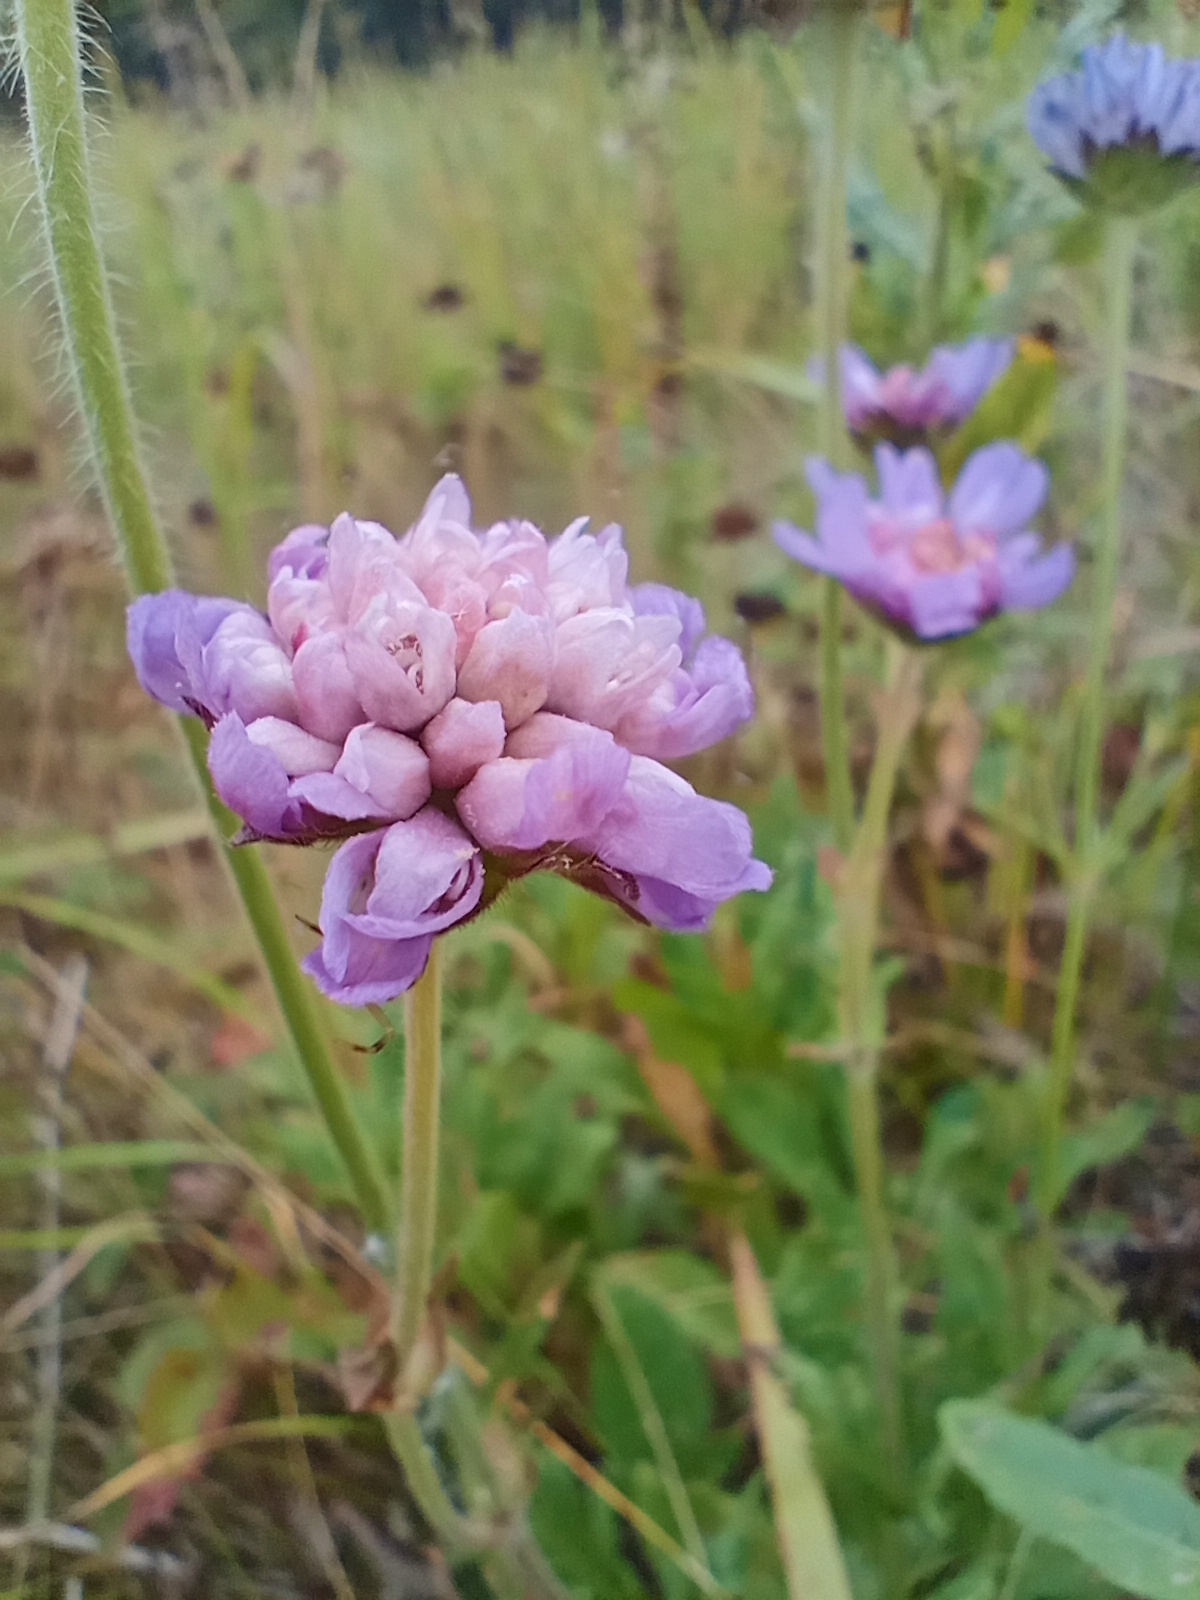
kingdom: Plantae
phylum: Tracheophyta
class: Magnoliopsida
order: Dipsacales
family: Caprifoliaceae
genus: Knautia
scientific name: Knautia arvensis
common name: Field scabiosa
